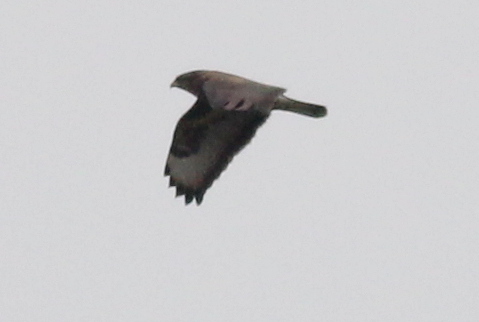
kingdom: Animalia
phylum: Chordata
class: Aves
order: Accipitriformes
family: Accipitridae
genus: Buteo
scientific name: Buteo buteo
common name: Common buzzard
